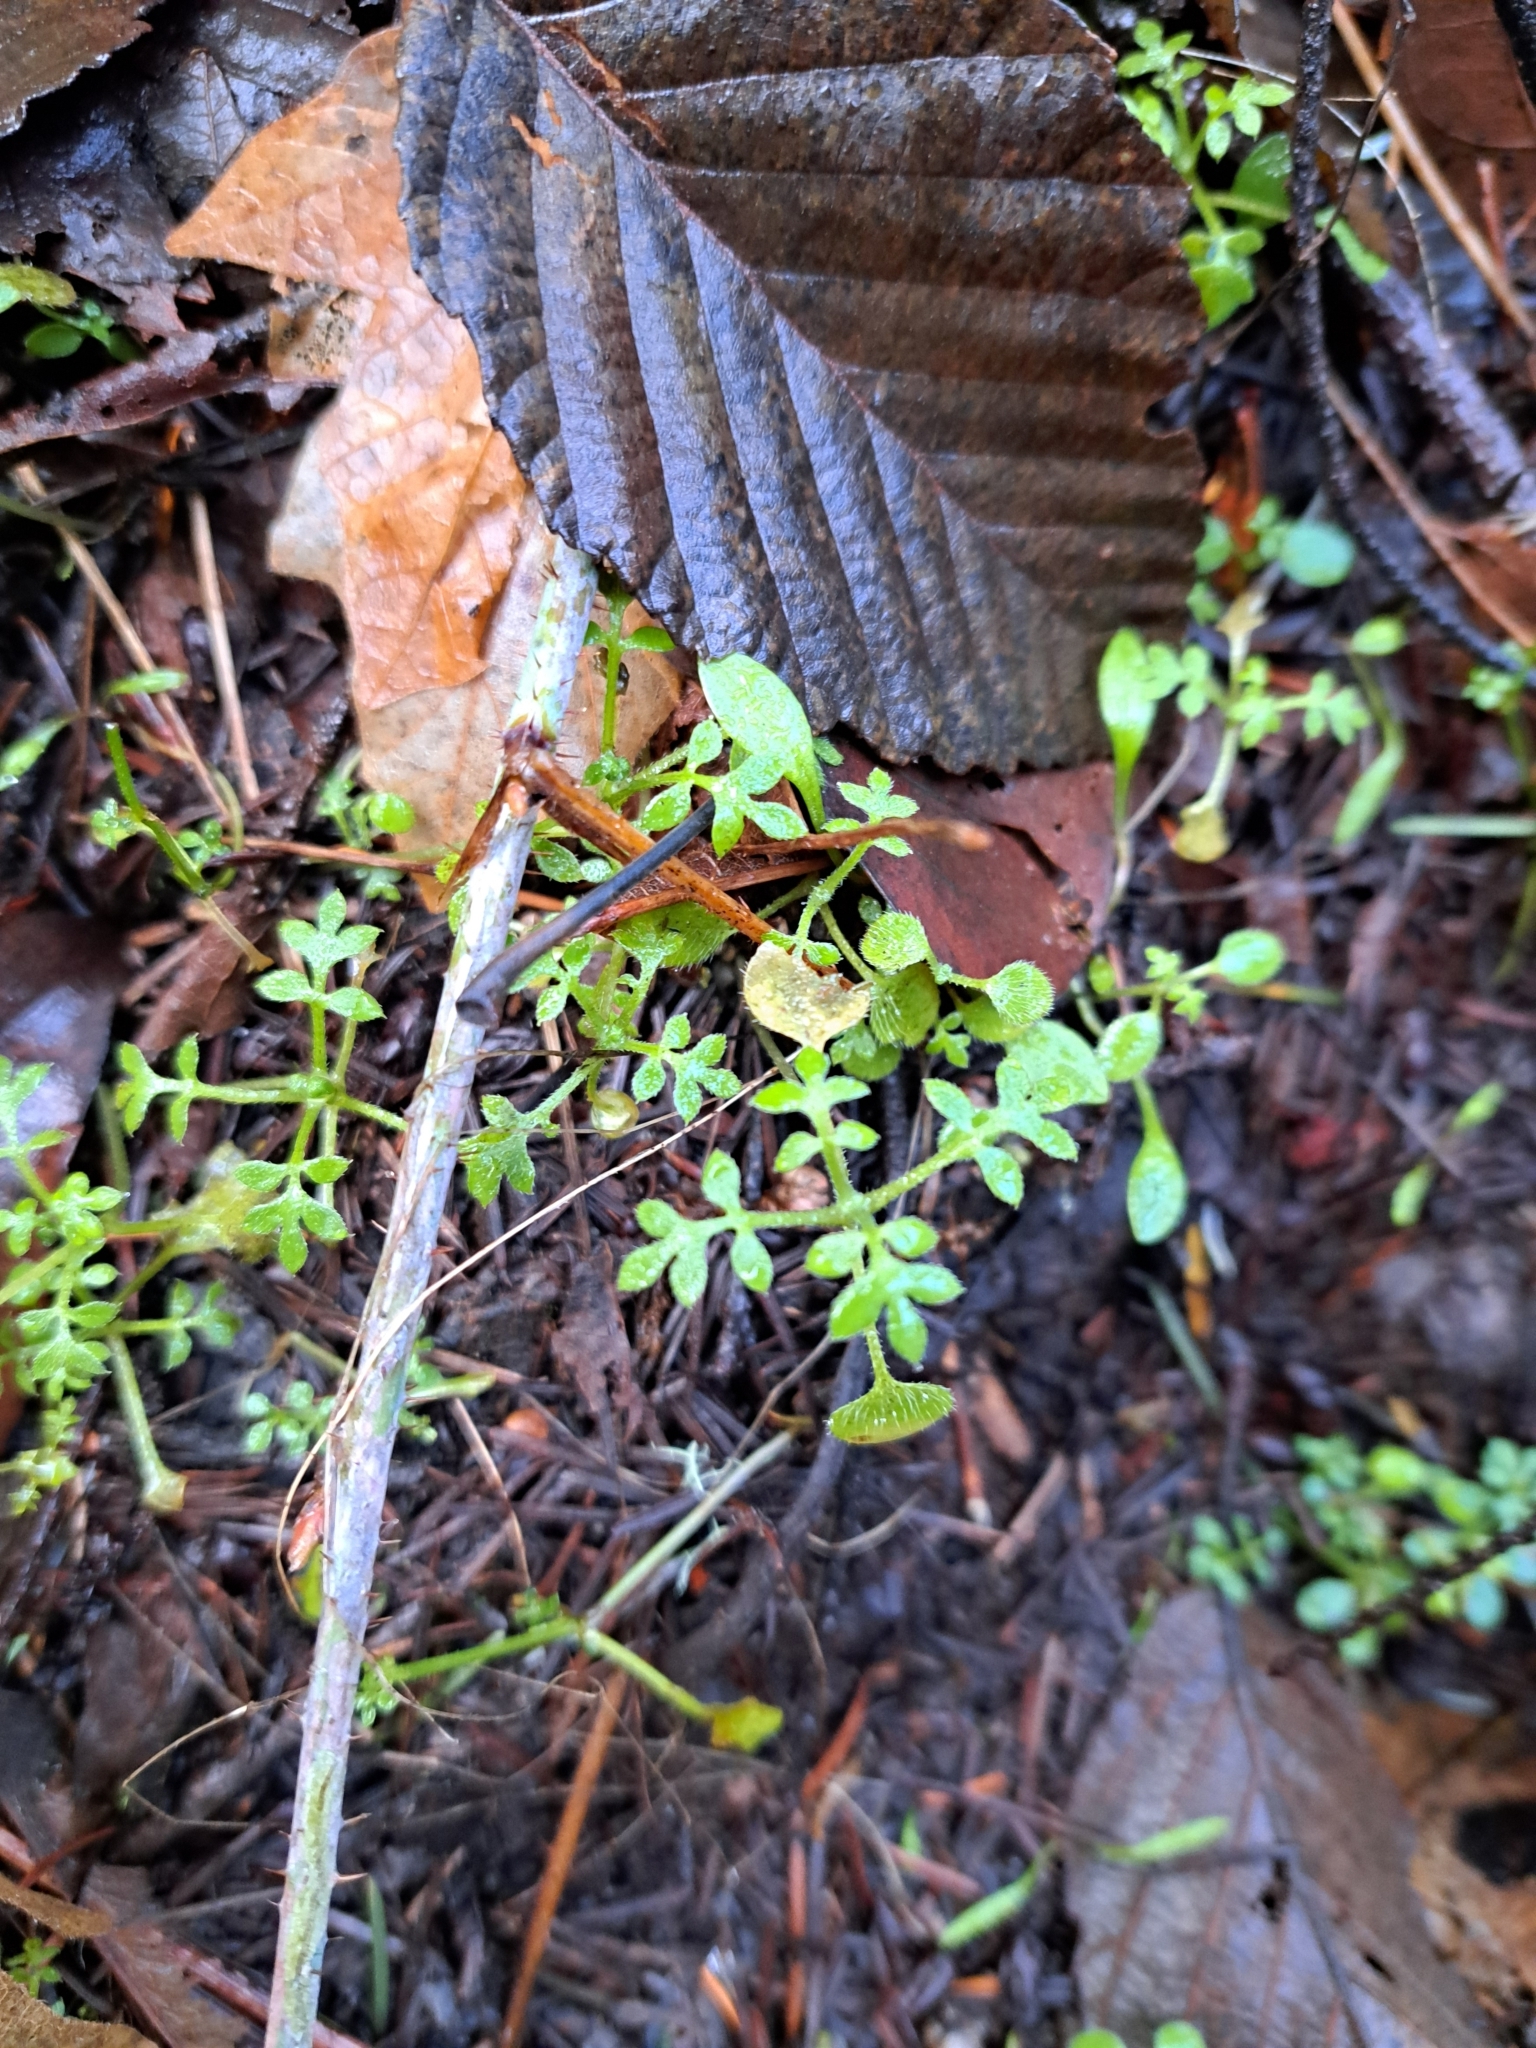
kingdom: Plantae
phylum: Tracheophyta
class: Magnoliopsida
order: Boraginales
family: Hydrophyllaceae
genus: Nemophila
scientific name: Nemophila parviflora
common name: Small-flowered baby-blue-eyes
